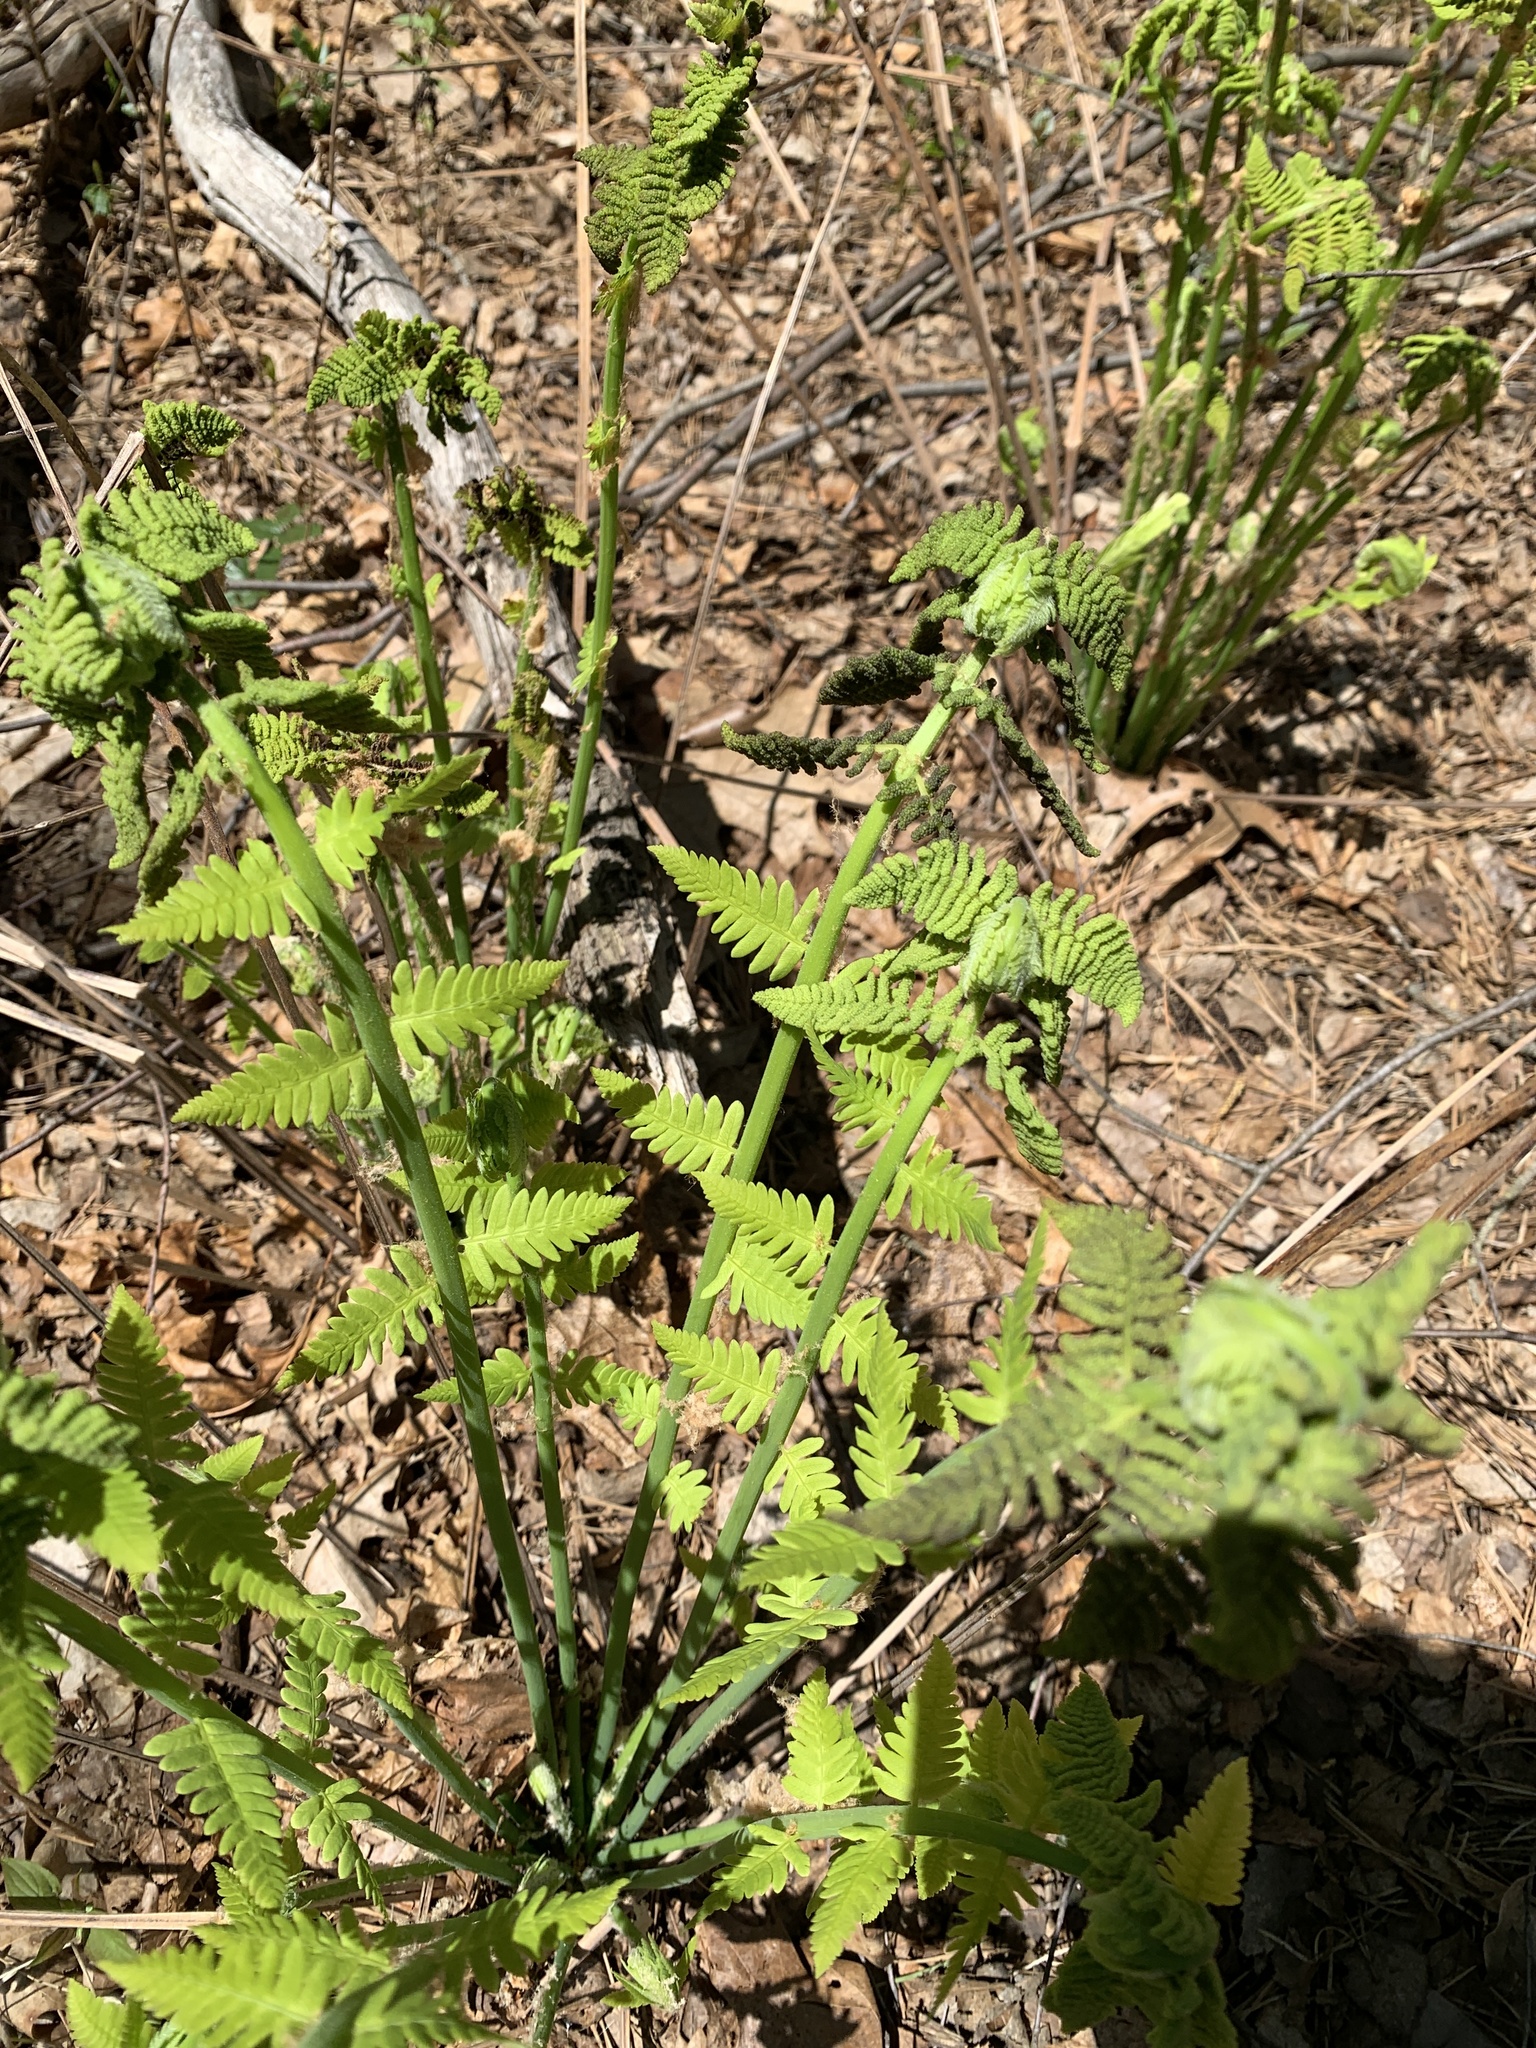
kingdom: Plantae
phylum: Tracheophyta
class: Polypodiopsida
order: Osmundales
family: Osmundaceae
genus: Claytosmunda
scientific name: Claytosmunda claytoniana
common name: Clayton's fern
